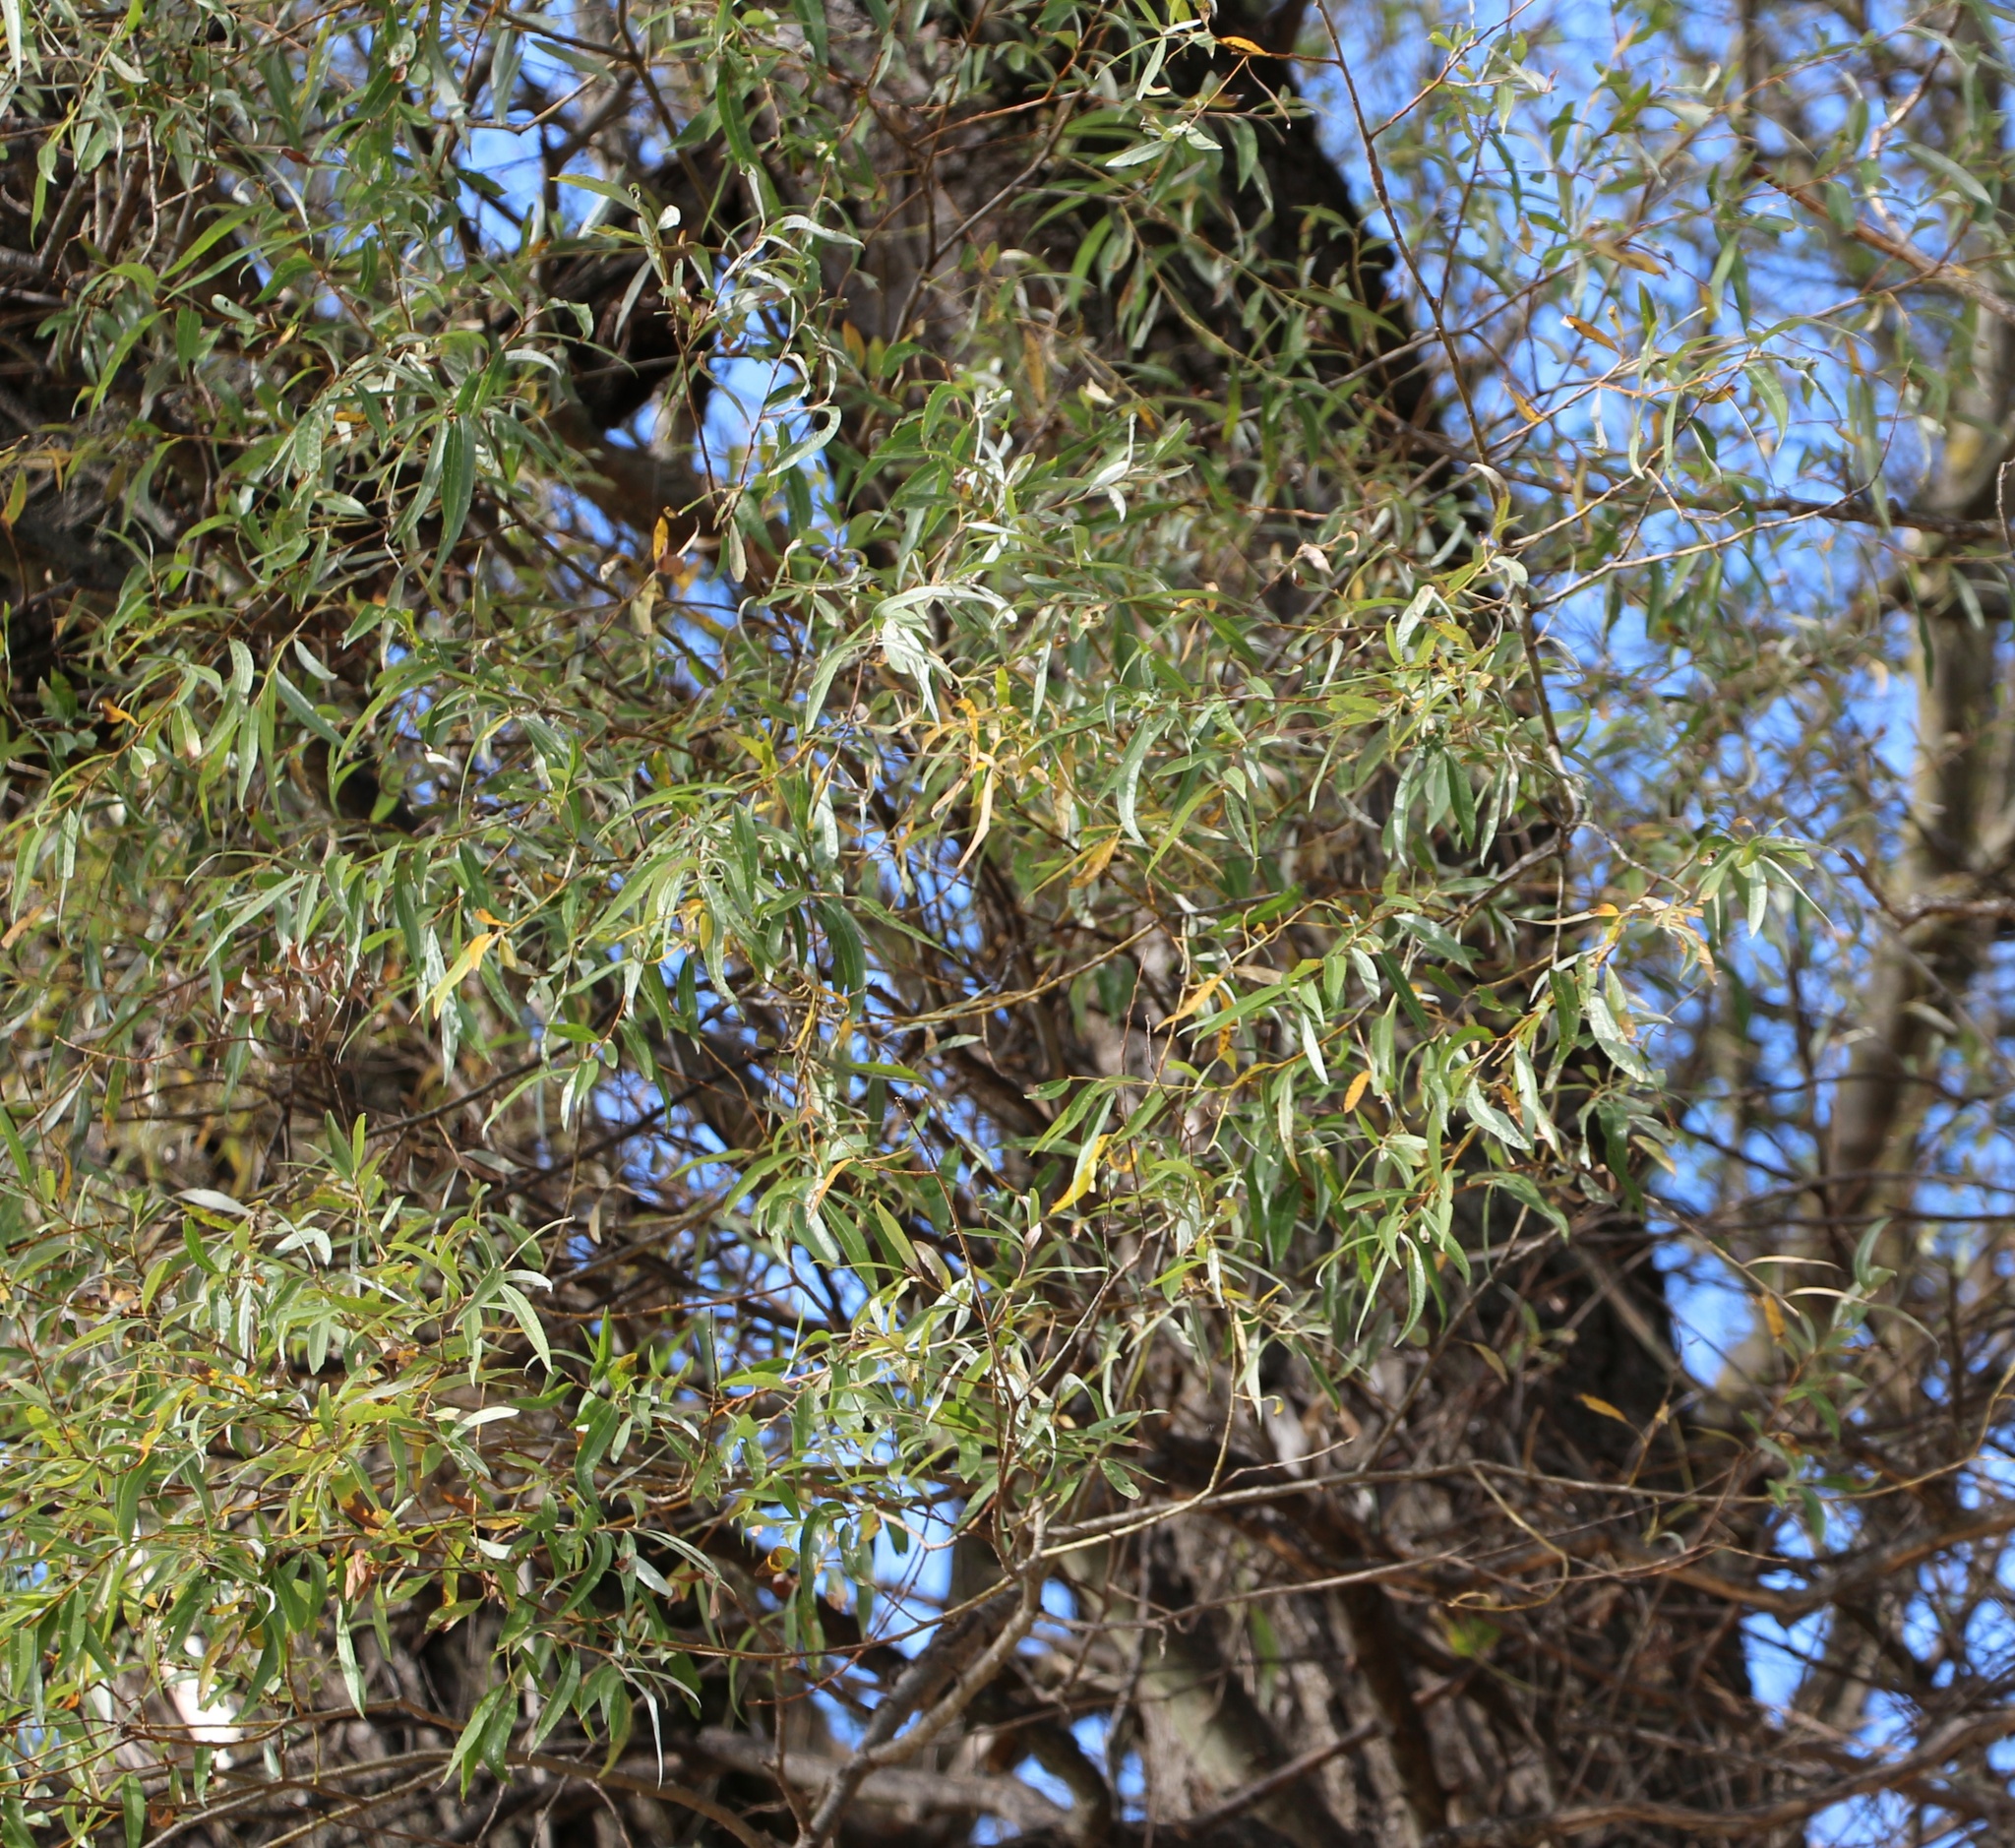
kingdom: Plantae
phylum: Tracheophyta
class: Magnoliopsida
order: Malpighiales
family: Salicaceae
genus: Salix
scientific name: Salix alba
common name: White willow
